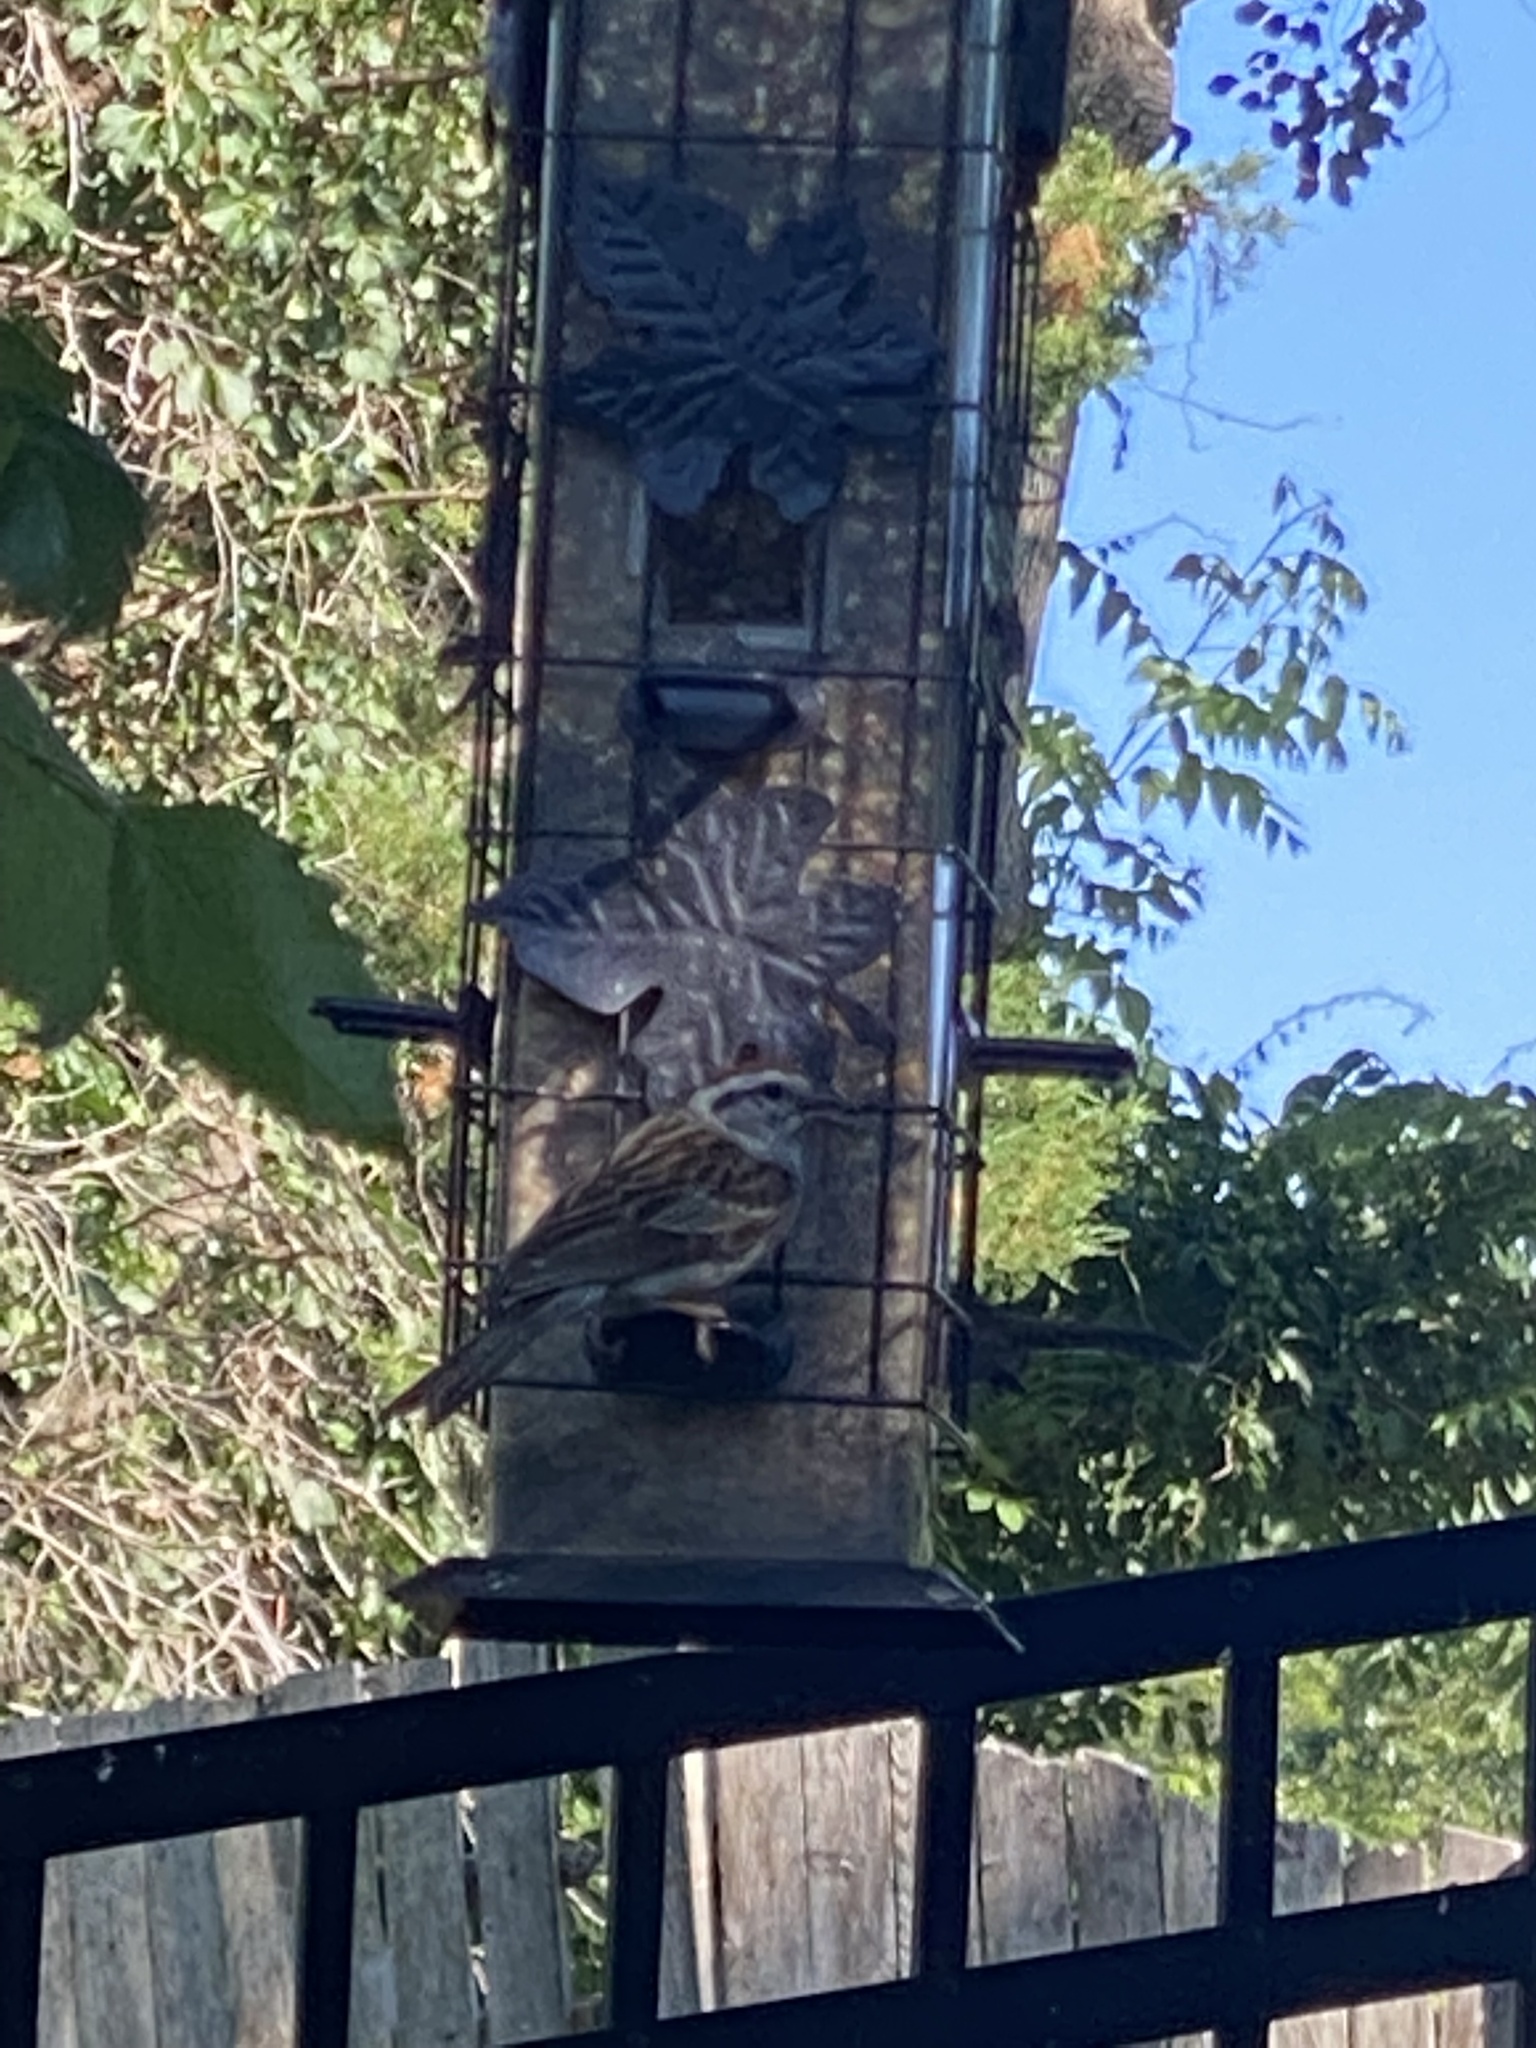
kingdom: Animalia
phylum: Chordata
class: Aves
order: Passeriformes
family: Passerellidae
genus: Spizella
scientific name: Spizella passerina
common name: Chipping sparrow
